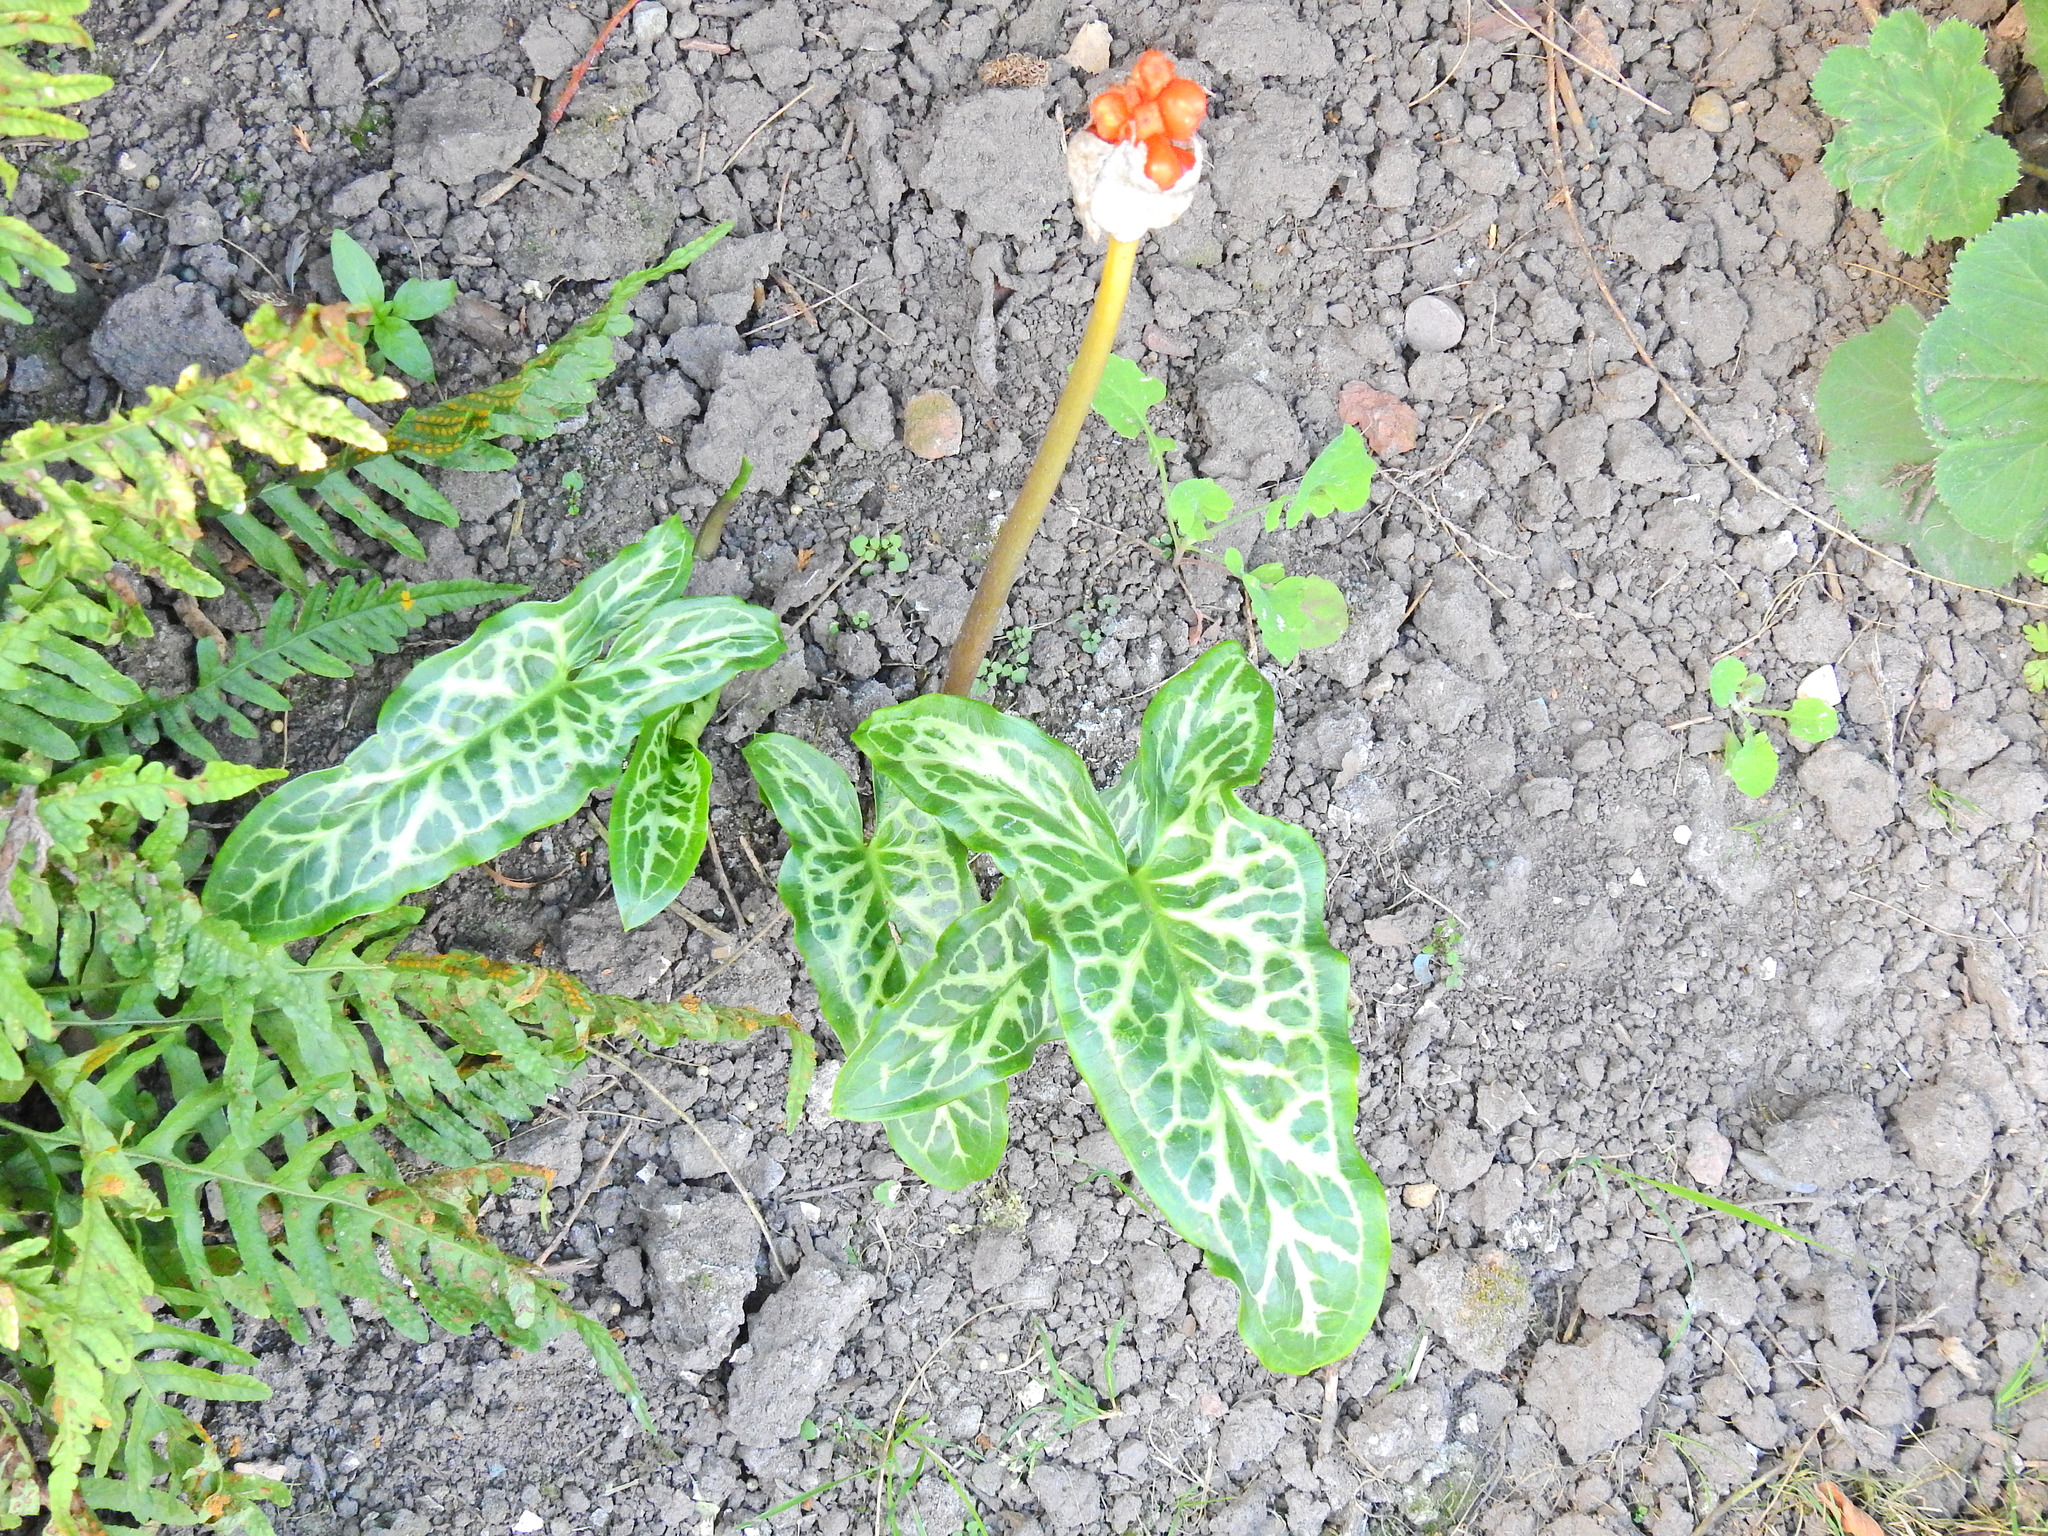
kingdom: Plantae
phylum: Tracheophyta
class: Liliopsida
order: Alismatales
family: Araceae
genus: Arum
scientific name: Arum italicum
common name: Italian lords-and-ladies
